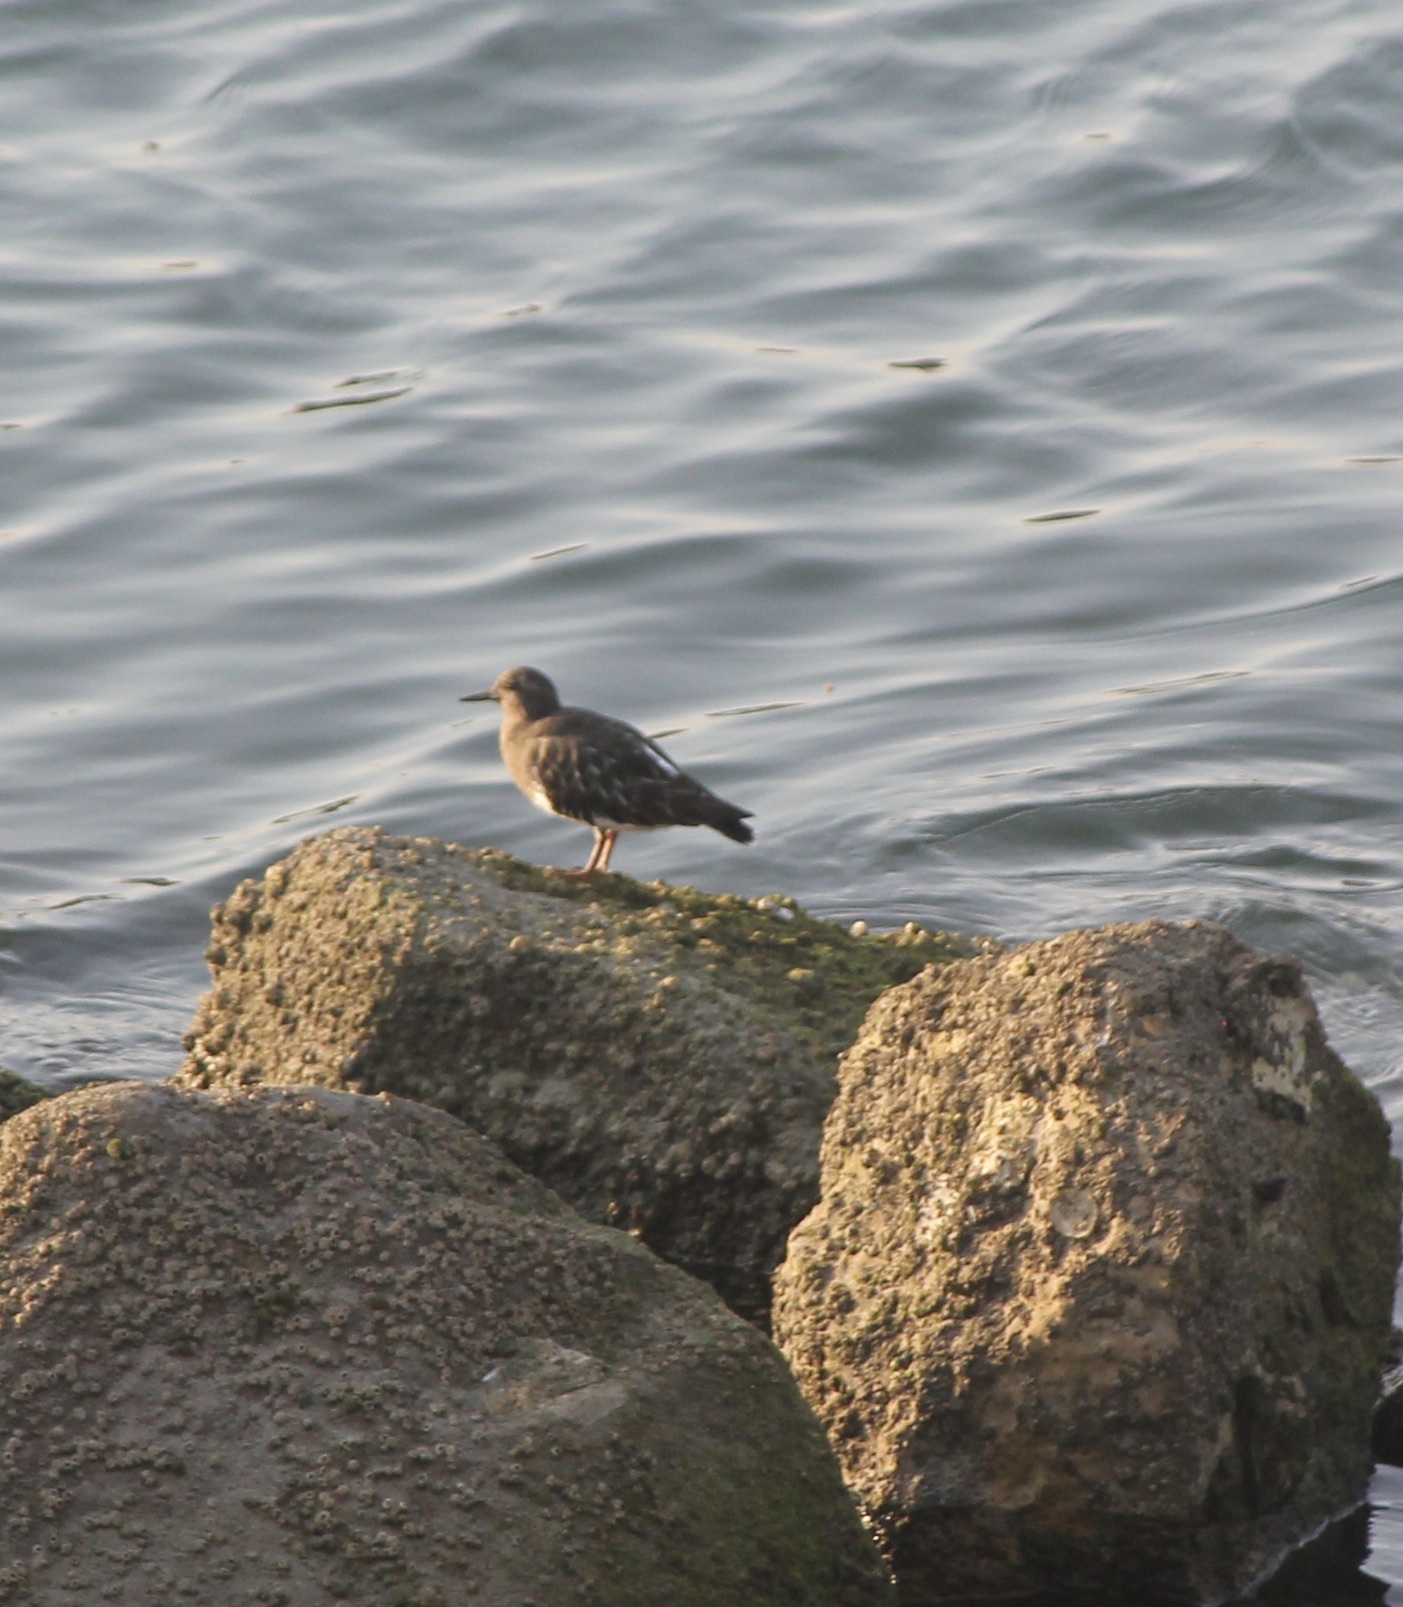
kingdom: Animalia
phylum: Chordata
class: Aves
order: Charadriiformes
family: Scolopacidae
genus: Arenaria
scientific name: Arenaria melanocephala
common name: Black turnstone
